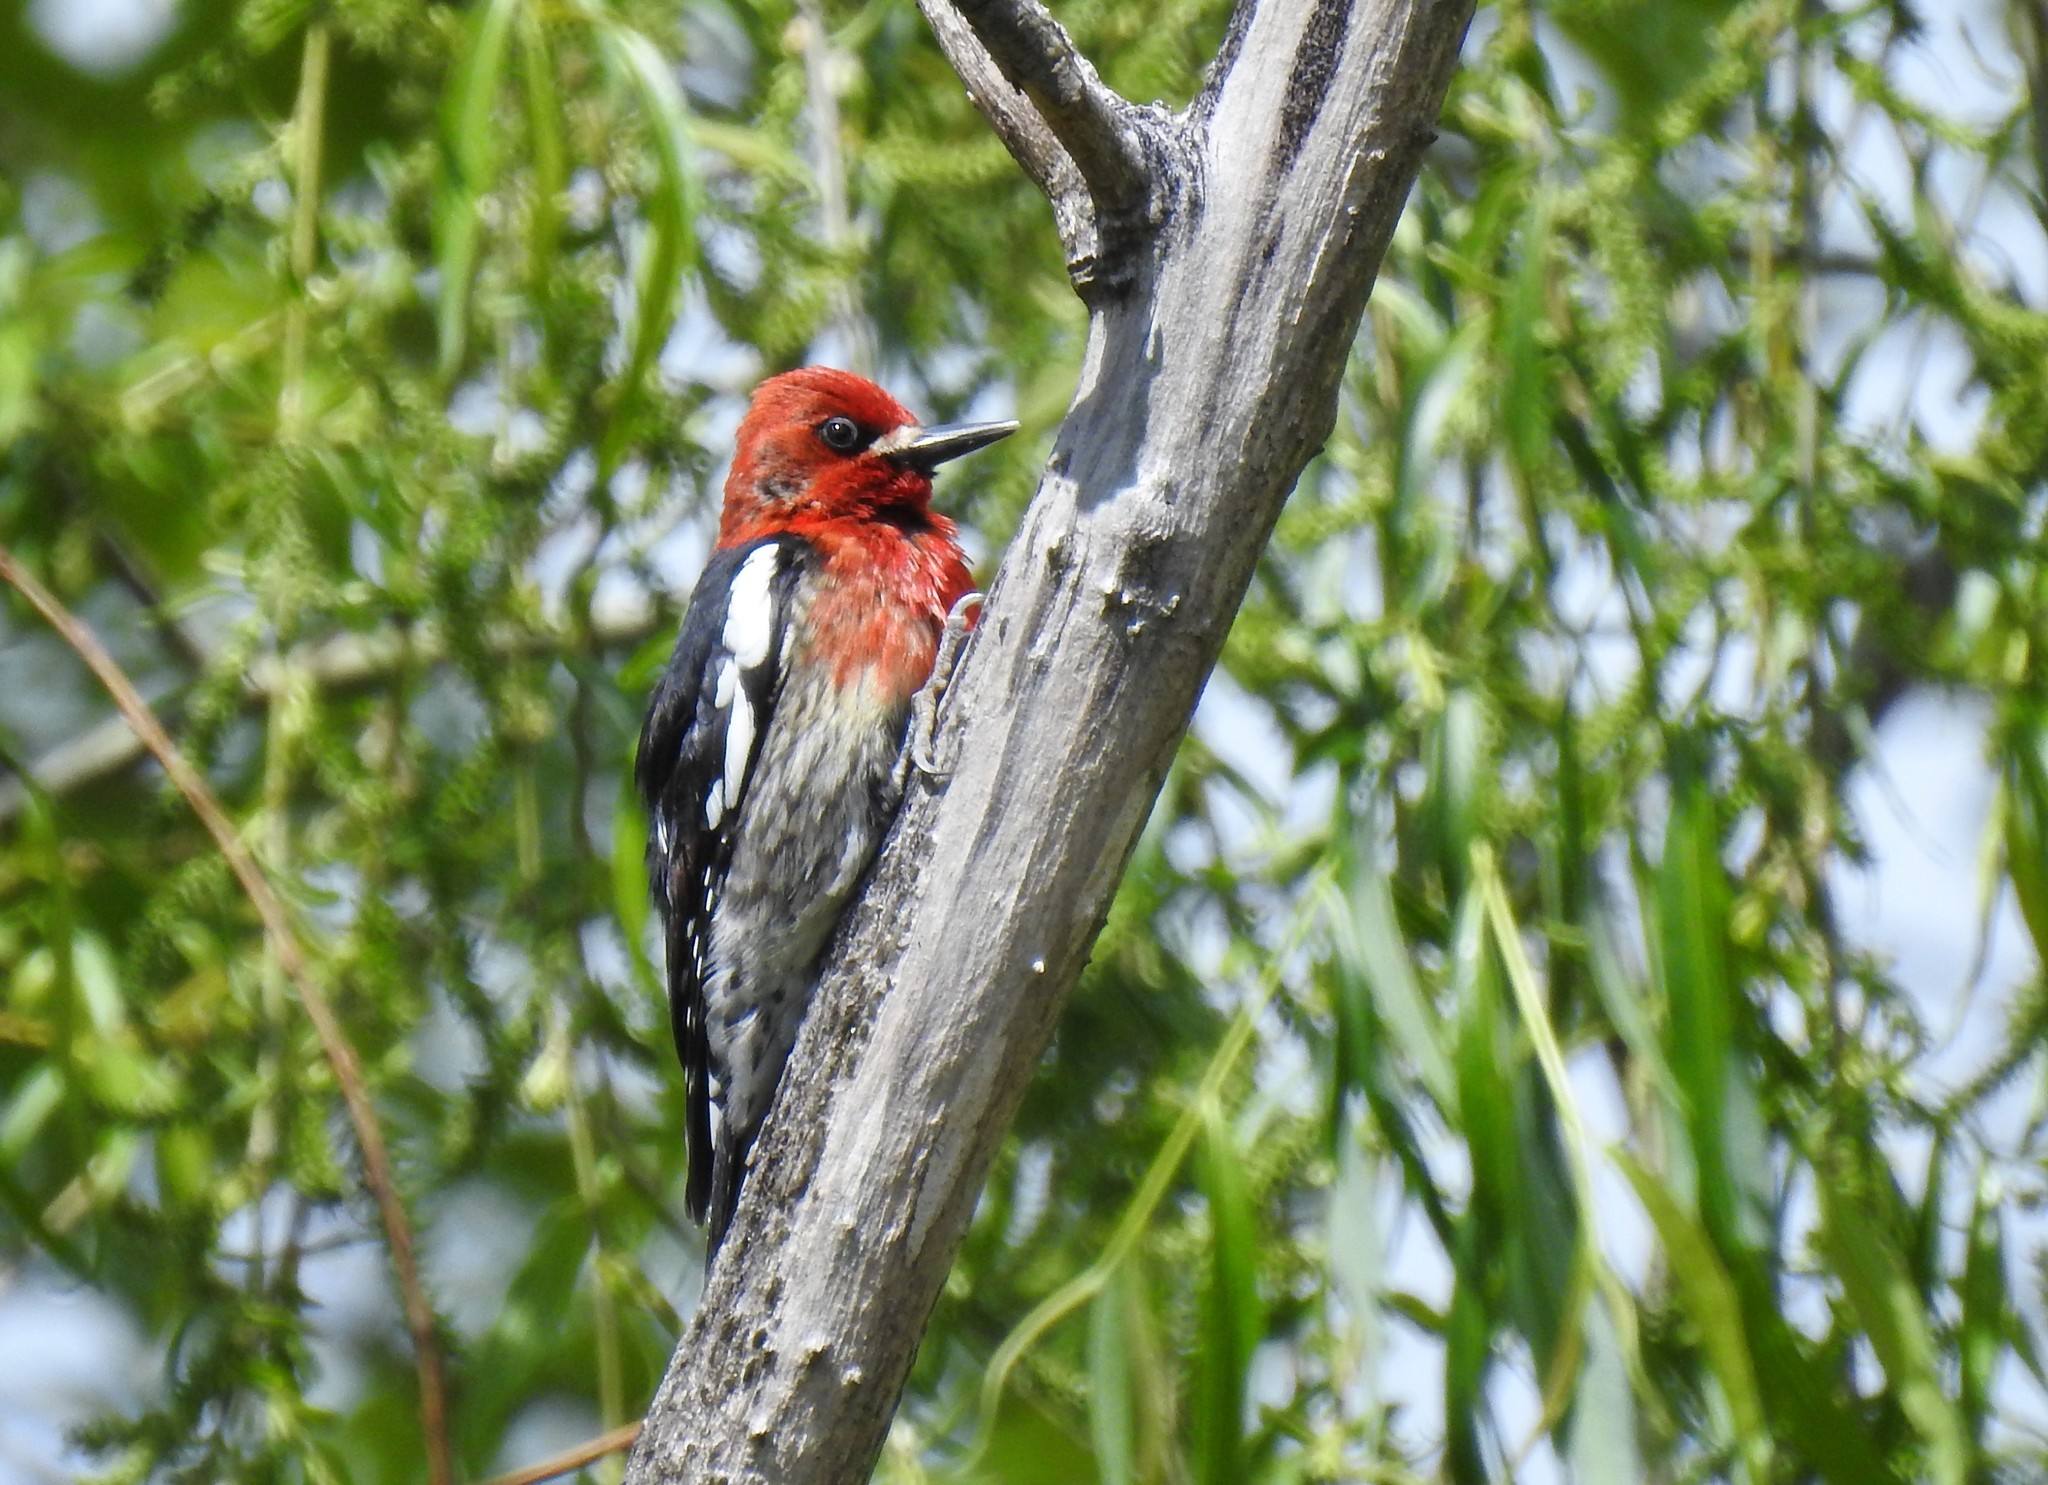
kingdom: Animalia
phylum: Chordata
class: Aves
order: Piciformes
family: Picidae
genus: Sphyrapicus
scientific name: Sphyrapicus ruber
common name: Red-breasted sapsucker
